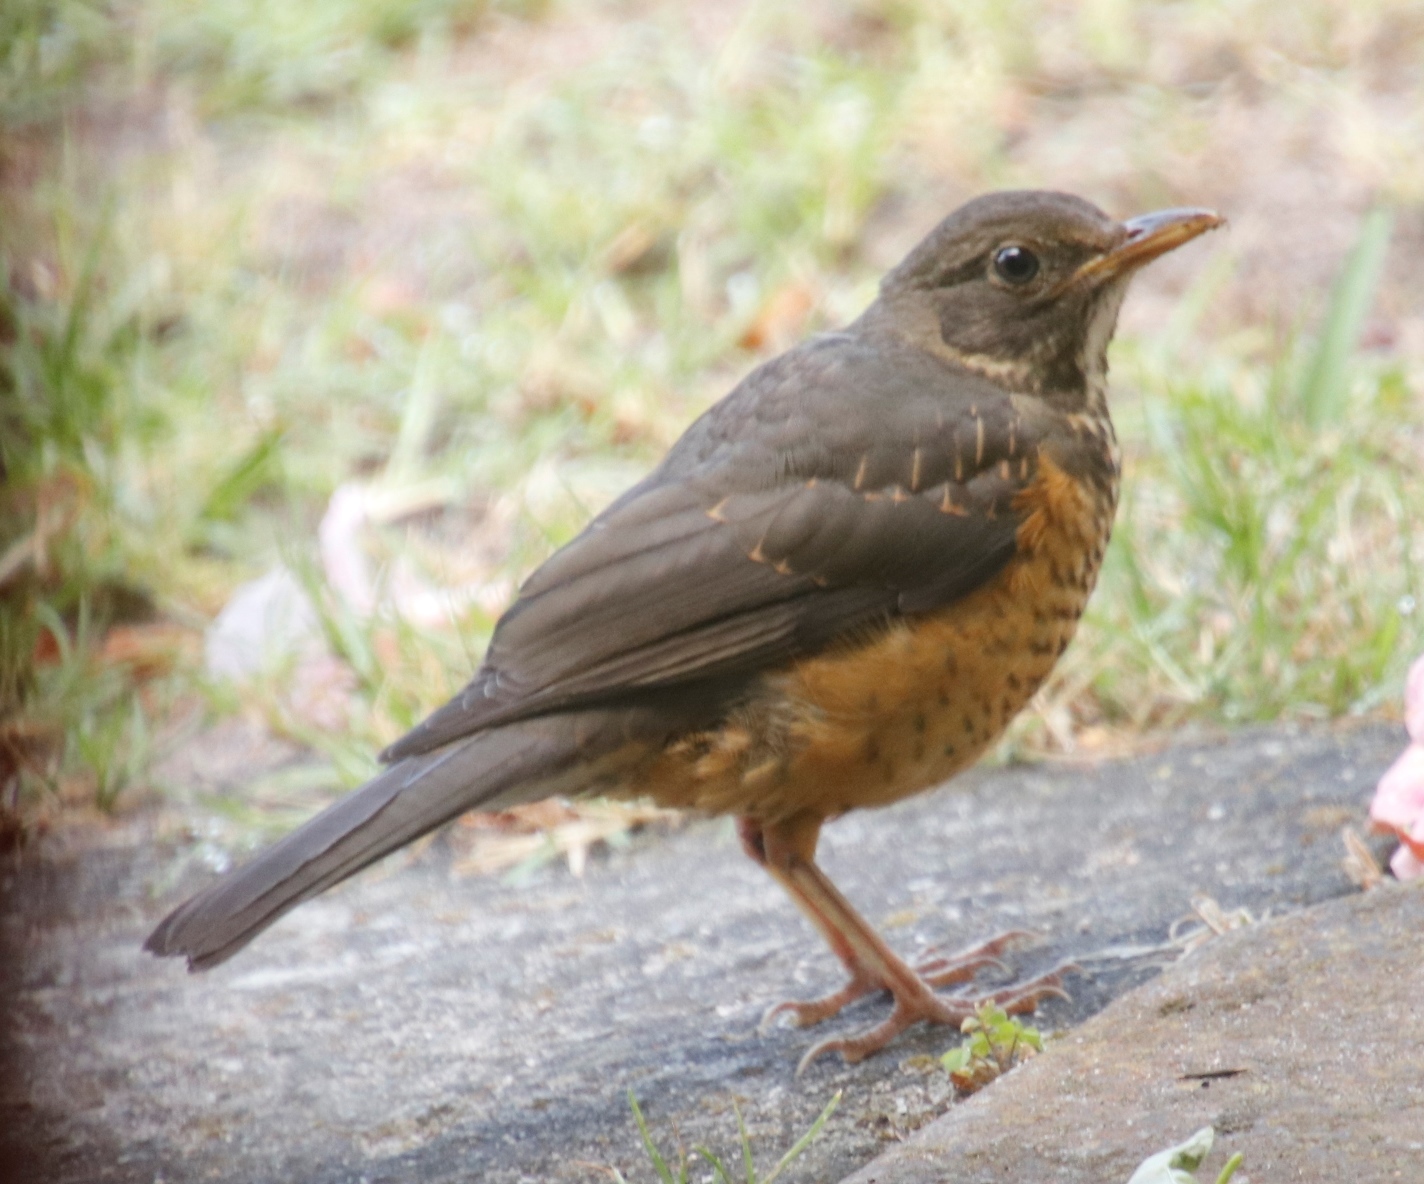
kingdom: Animalia
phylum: Chordata
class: Aves
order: Passeriformes
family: Turdidae
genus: Turdus
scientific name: Turdus olivaceus
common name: Olive thrush
